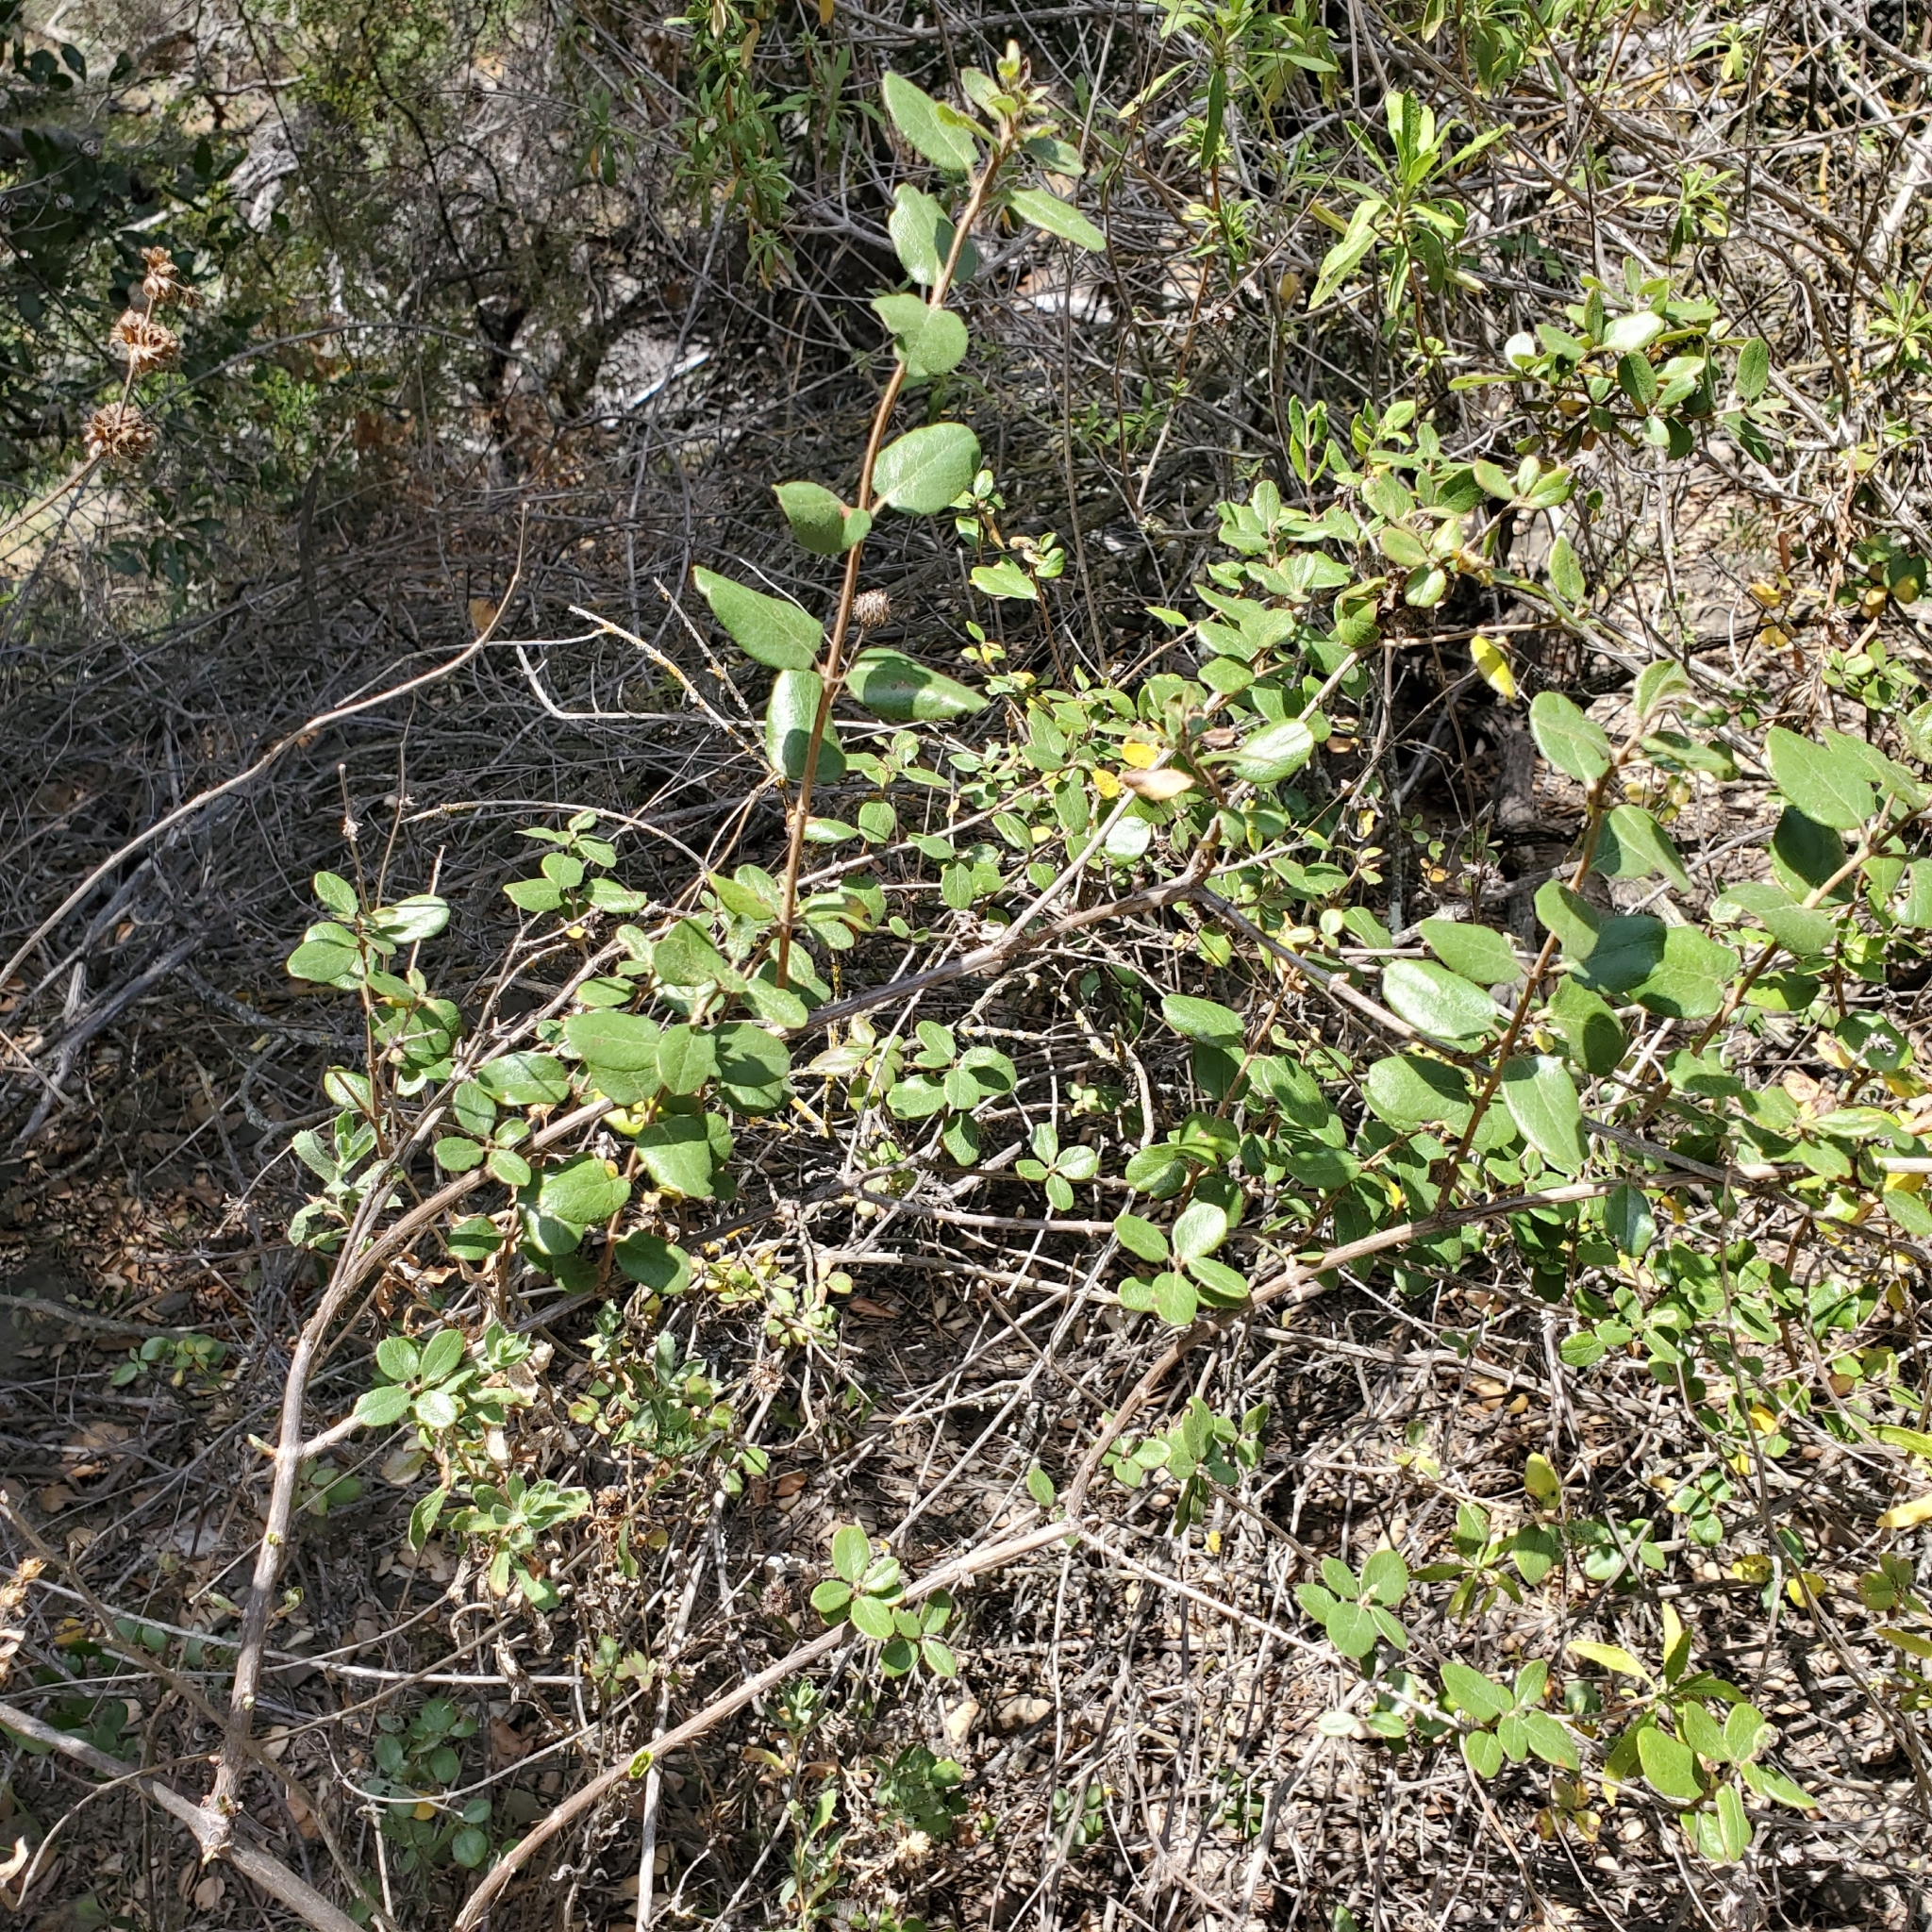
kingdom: Plantae
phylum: Tracheophyta
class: Magnoliopsida
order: Dipsacales
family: Caprifoliaceae
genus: Lonicera
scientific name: Lonicera subspicata
